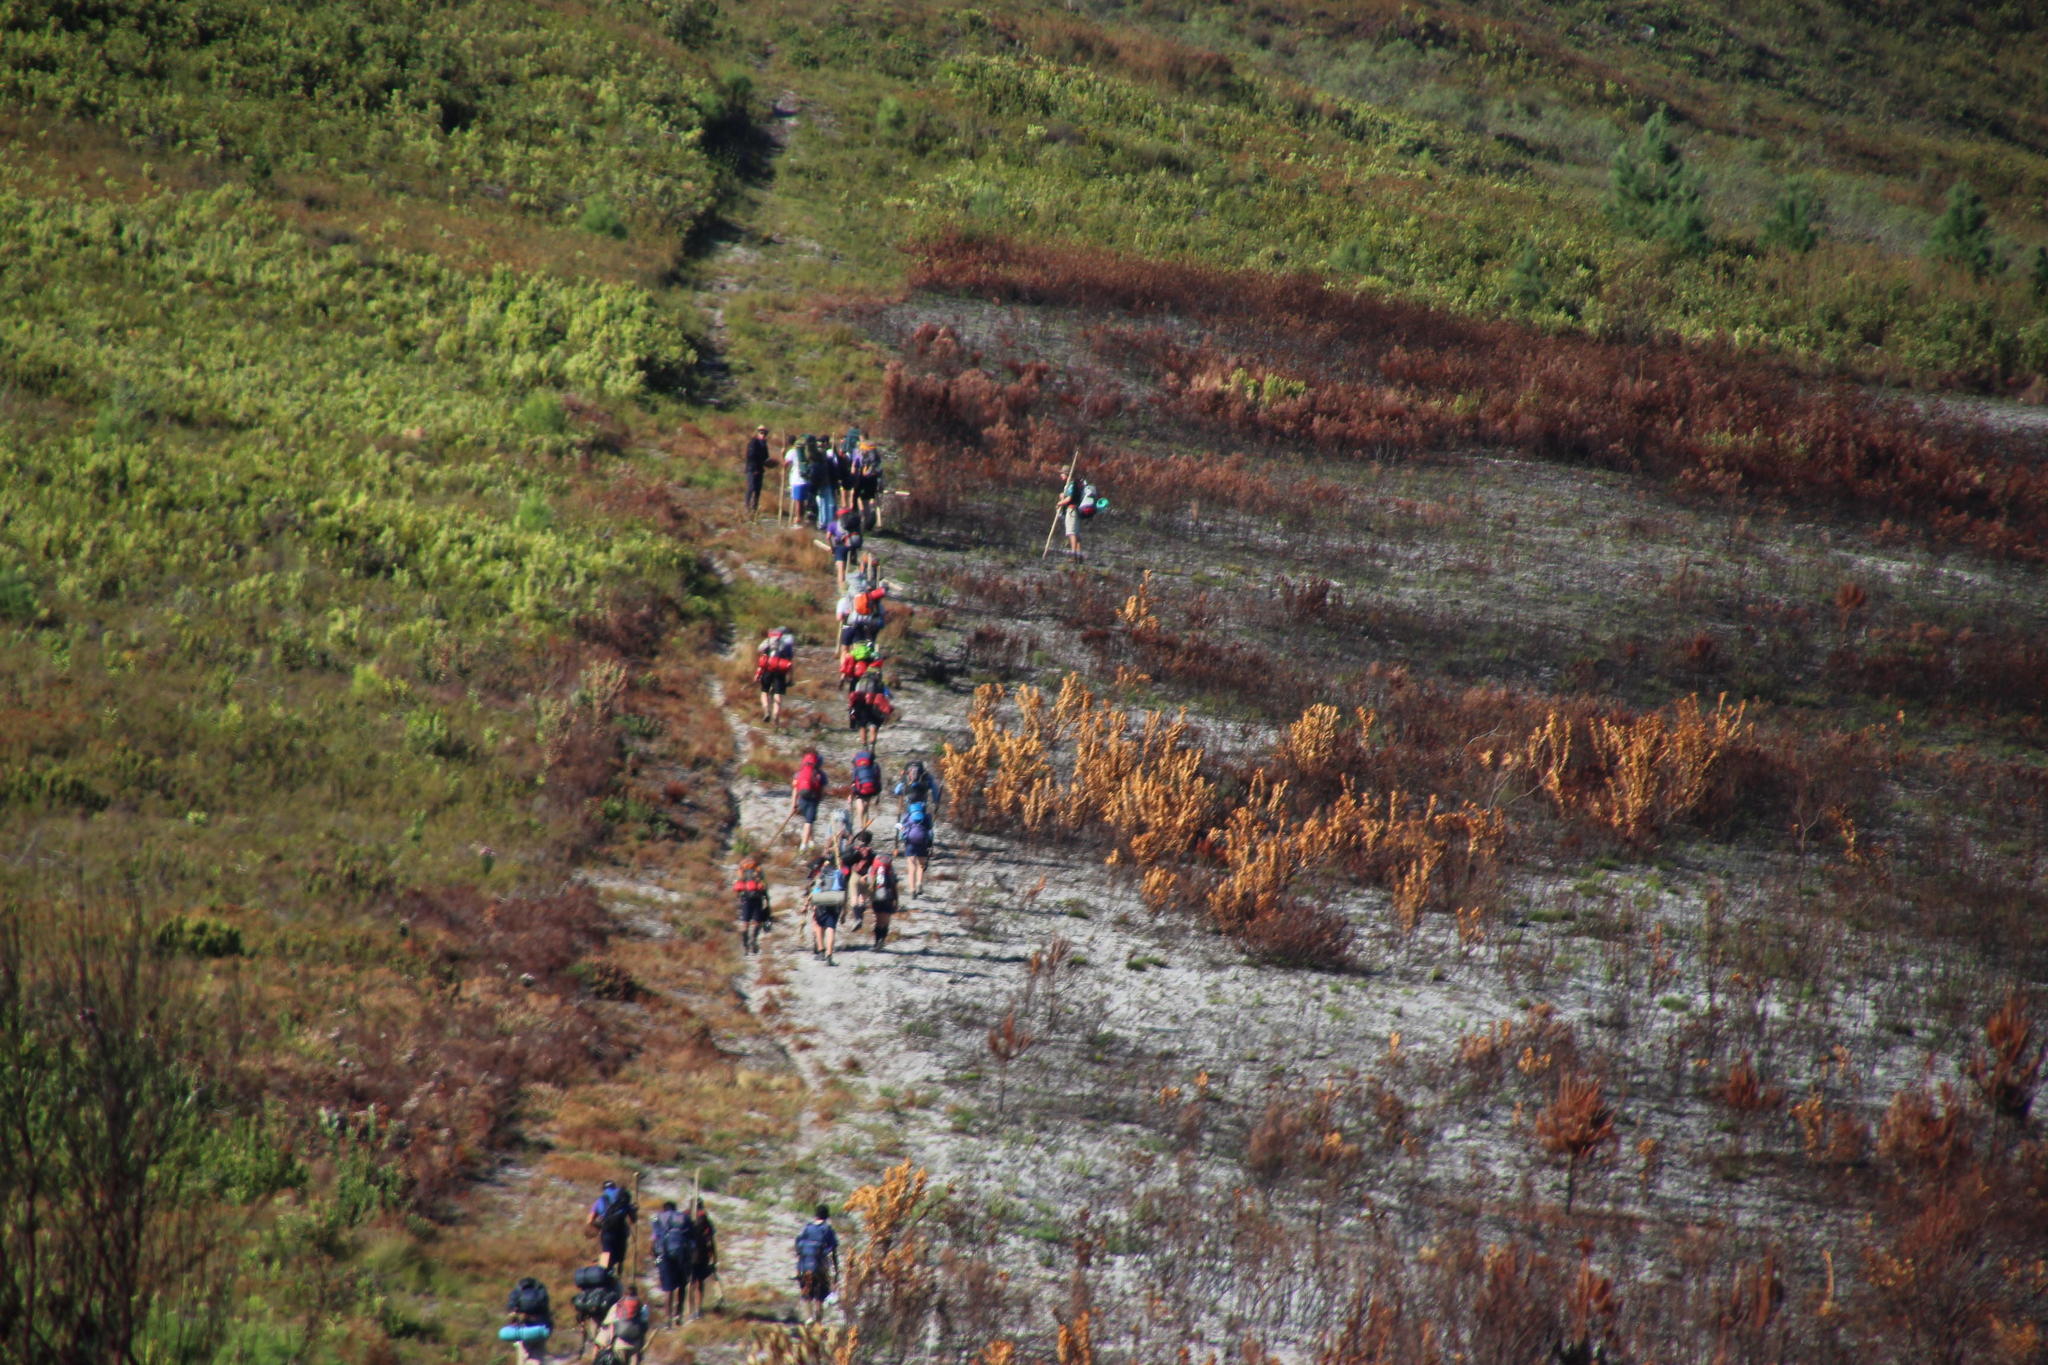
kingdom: Plantae
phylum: Tracheophyta
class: Magnoliopsida
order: Proteales
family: Proteaceae
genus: Protea
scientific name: Protea compacta
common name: Bot river protea
